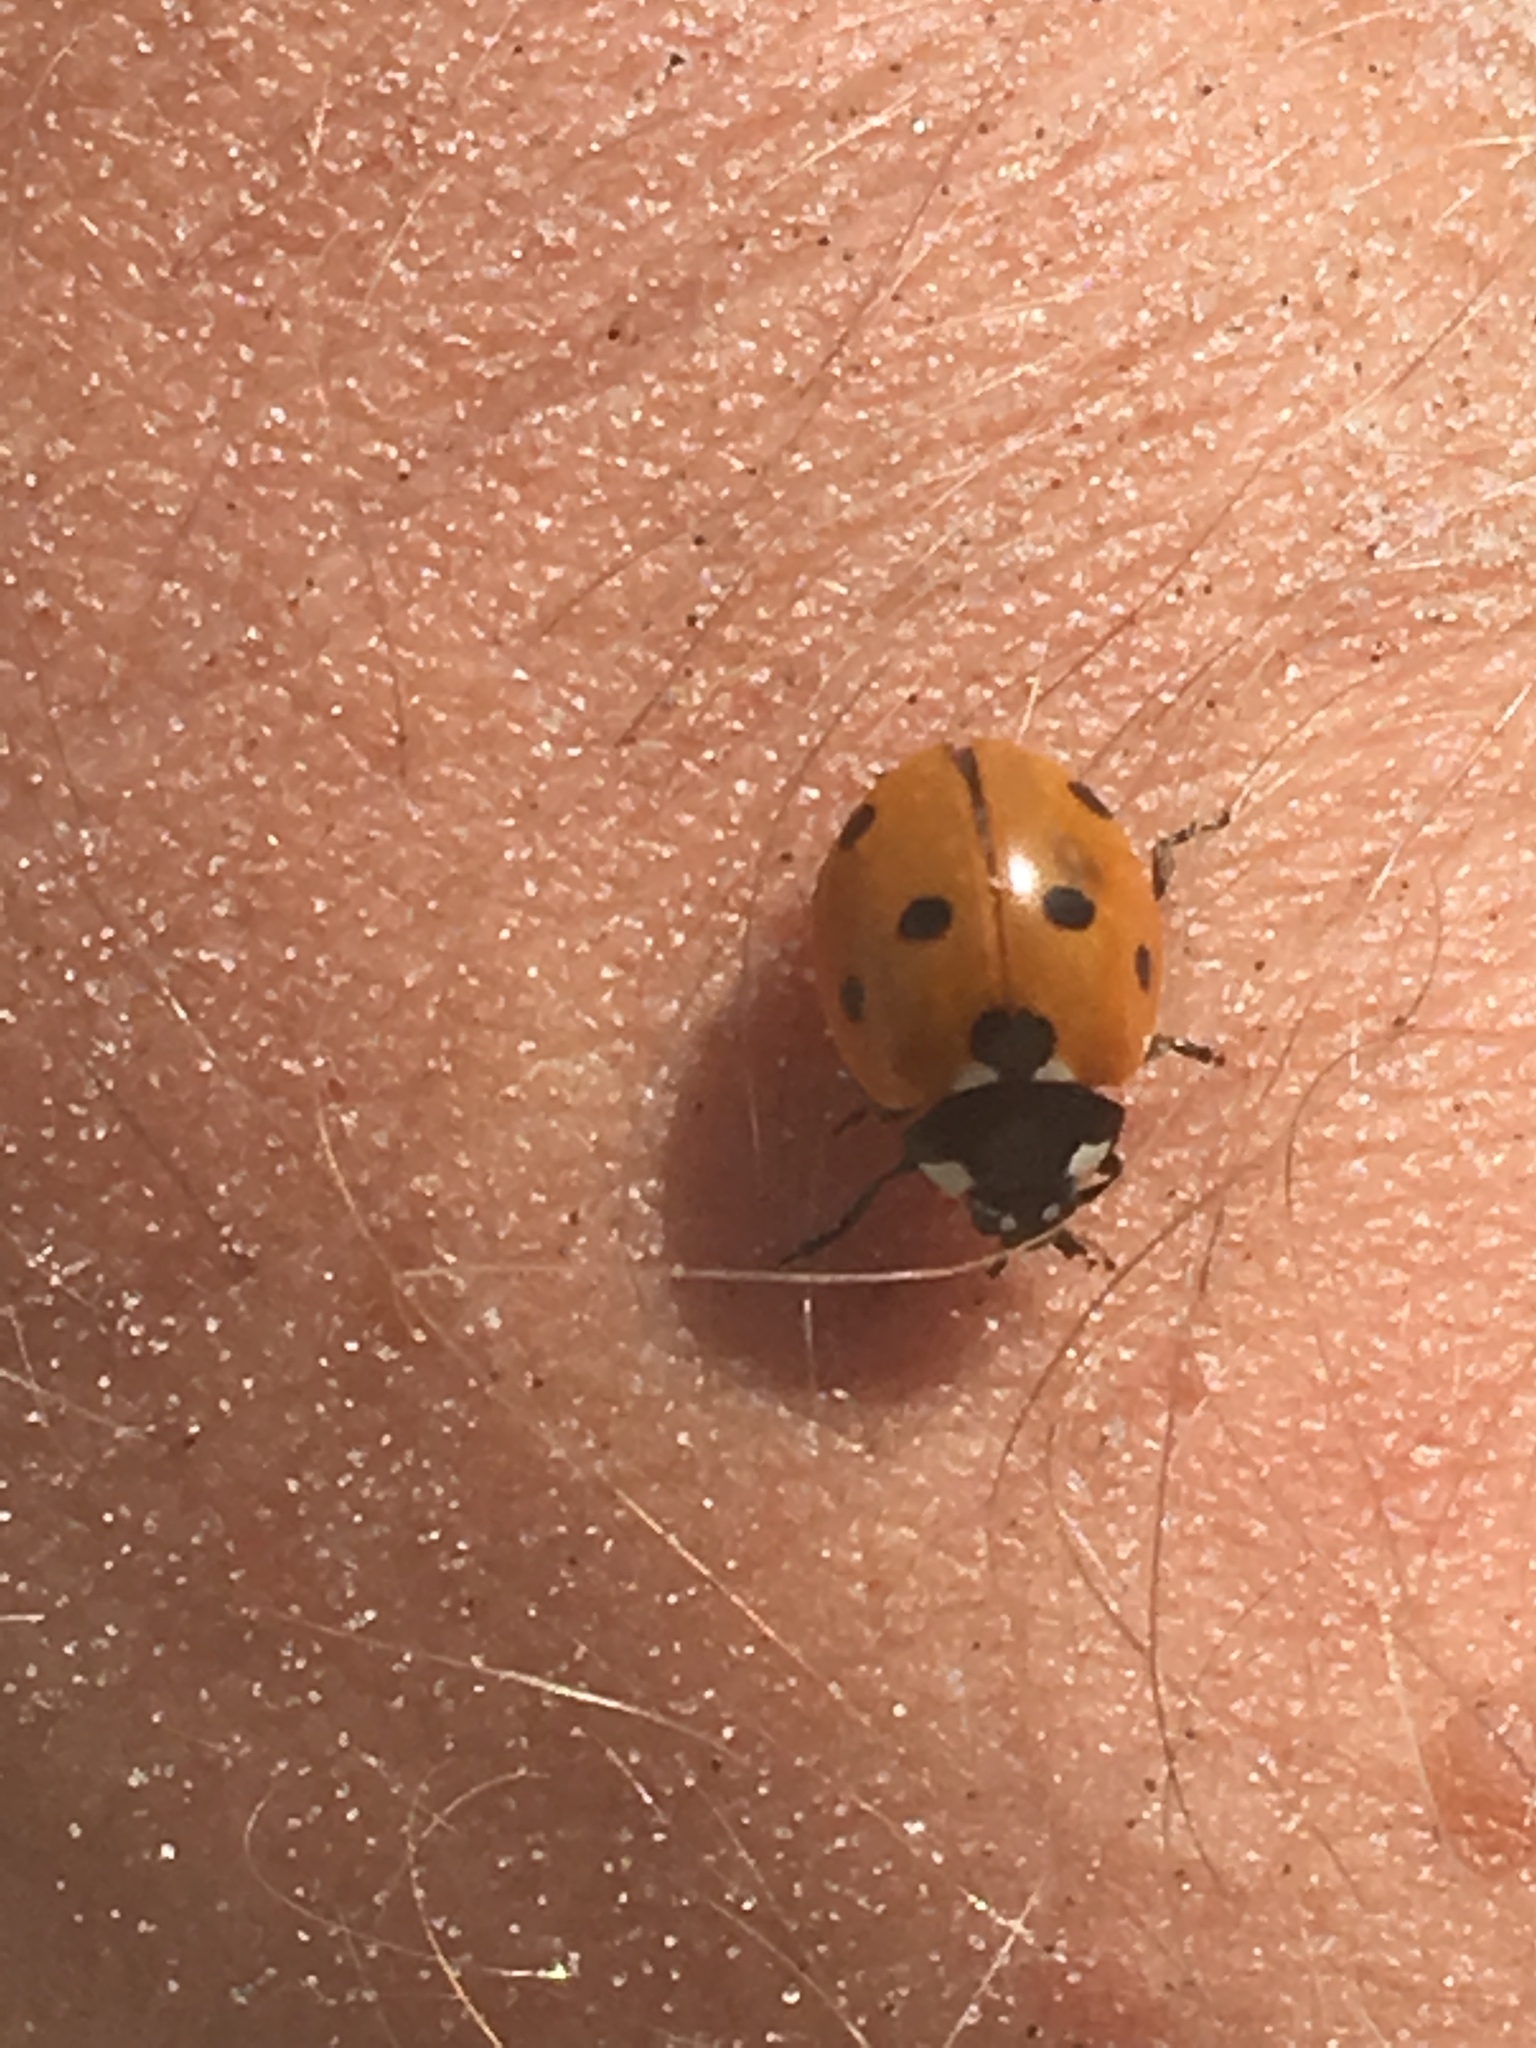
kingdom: Animalia
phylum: Arthropoda
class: Insecta
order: Coleoptera
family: Coccinellidae
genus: Coccinella
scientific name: Coccinella septempunctata
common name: Sevenspotted lady beetle
